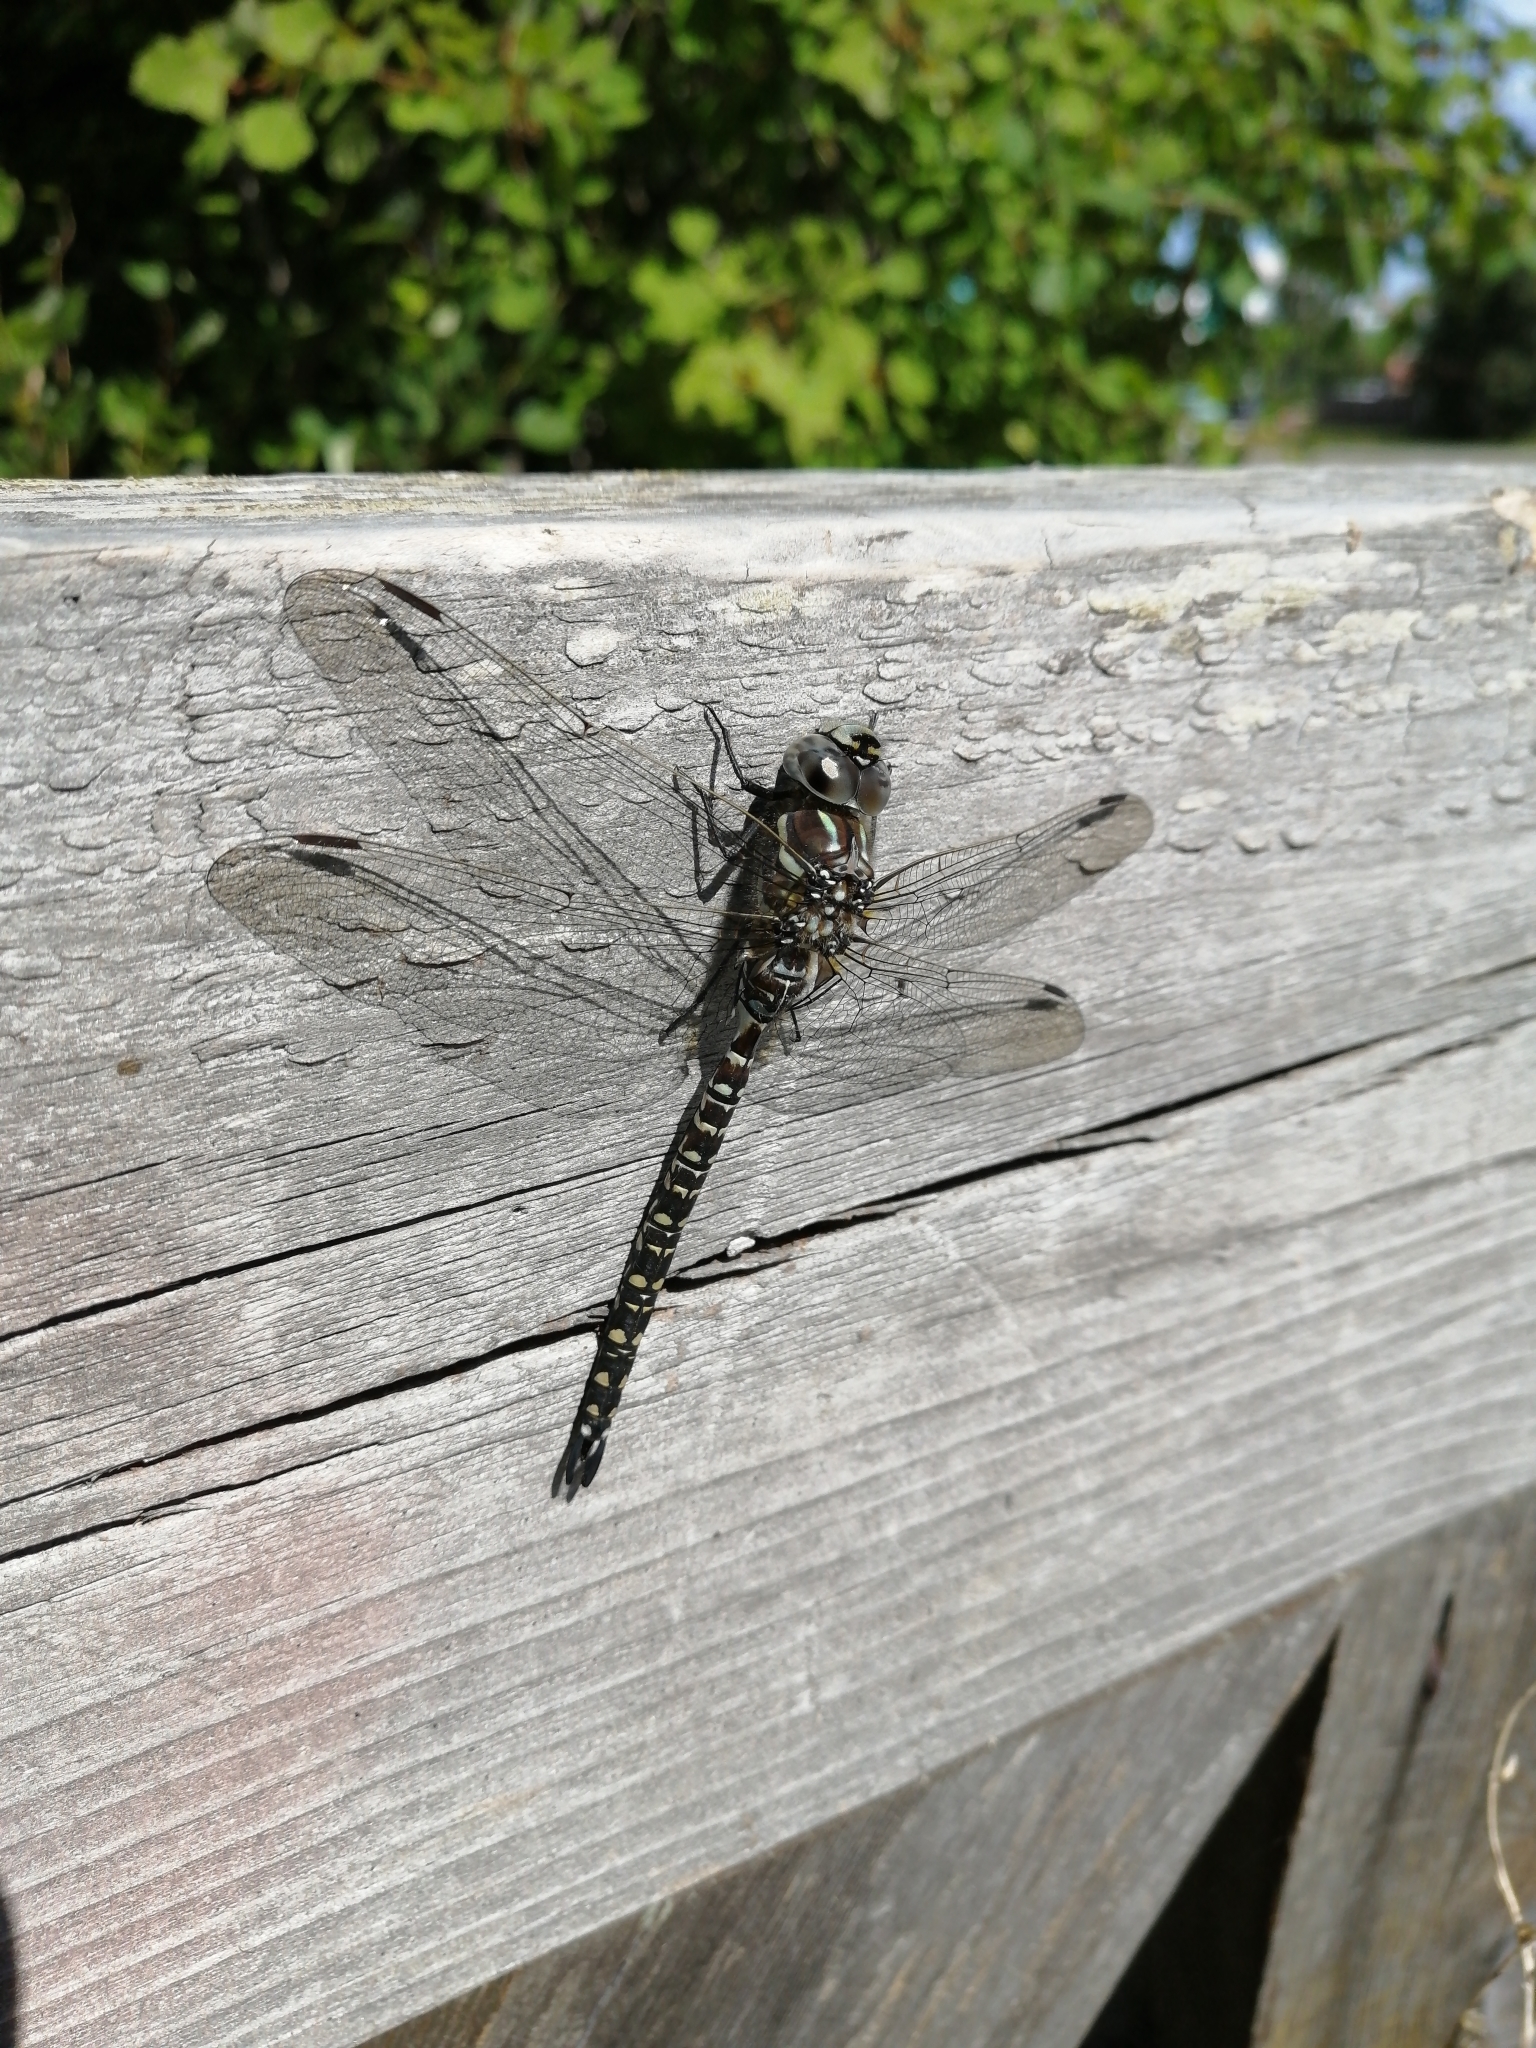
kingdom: Animalia
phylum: Arthropoda
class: Insecta
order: Odonata
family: Aeshnidae
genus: Aeshna
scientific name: Aeshna subarctica
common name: Subarctic darner
